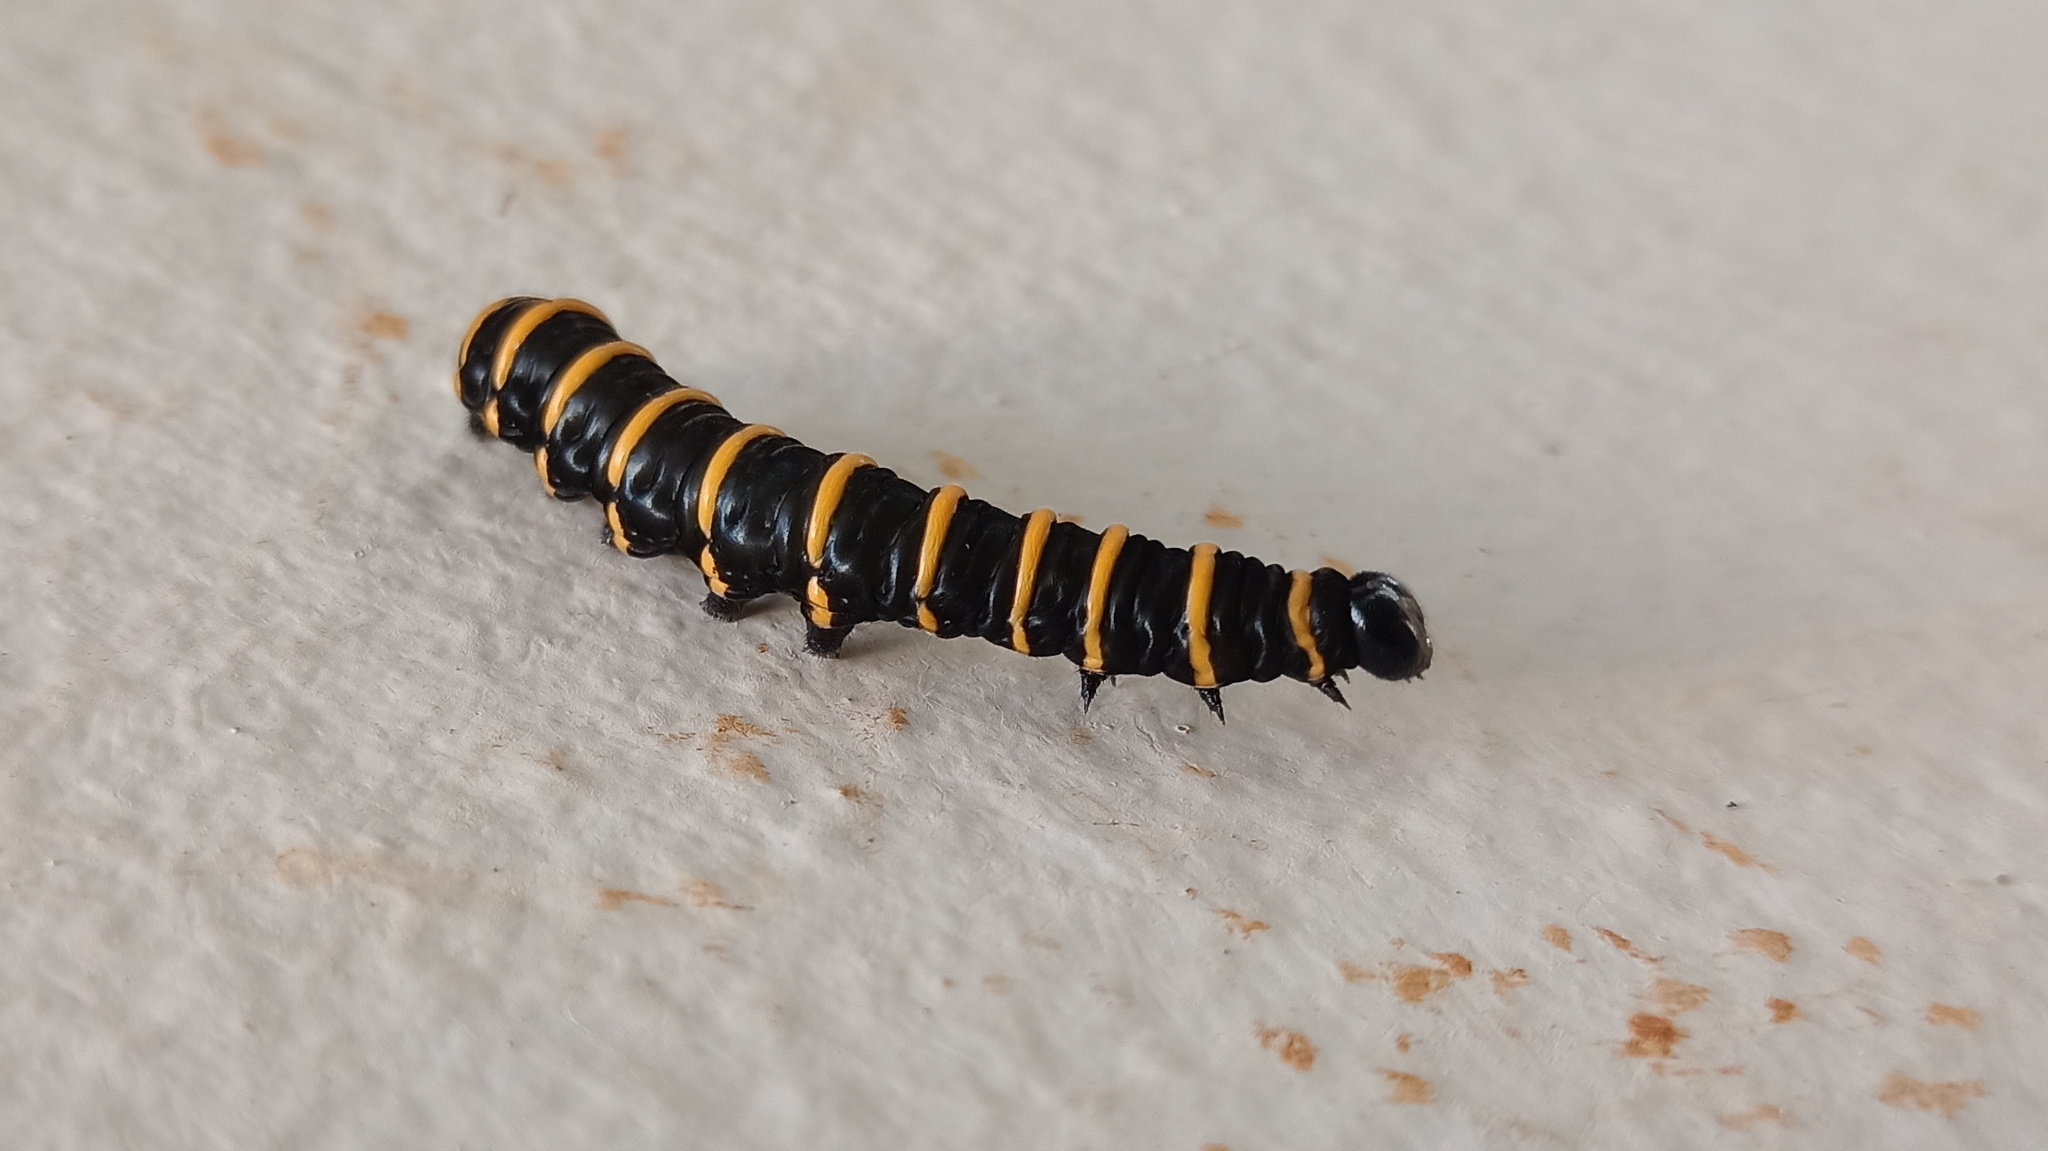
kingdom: Animalia
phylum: Arthropoda
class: Insecta
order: Lepidoptera
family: Nymphalidae
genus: Methona
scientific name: Methona themisto
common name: Themisto amberwing
